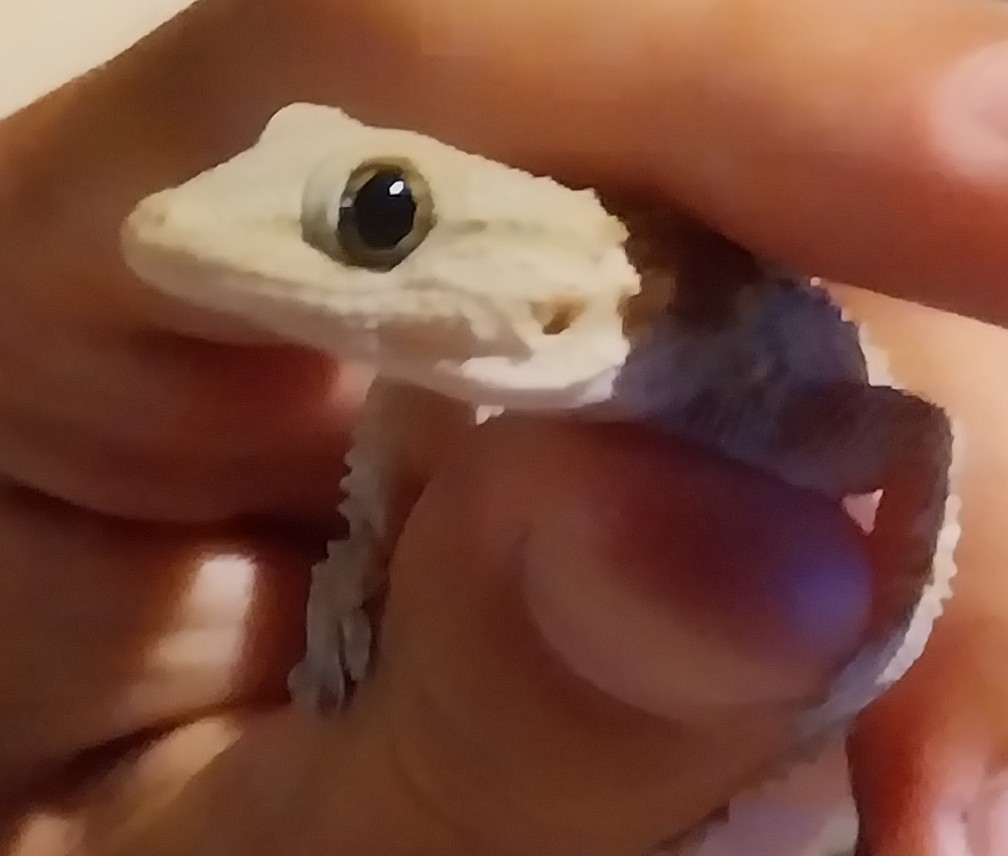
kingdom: Animalia
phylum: Chordata
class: Squamata
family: Phyllodactylidae
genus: Tarentola
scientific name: Tarentola mauritanica
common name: Moorish gecko
